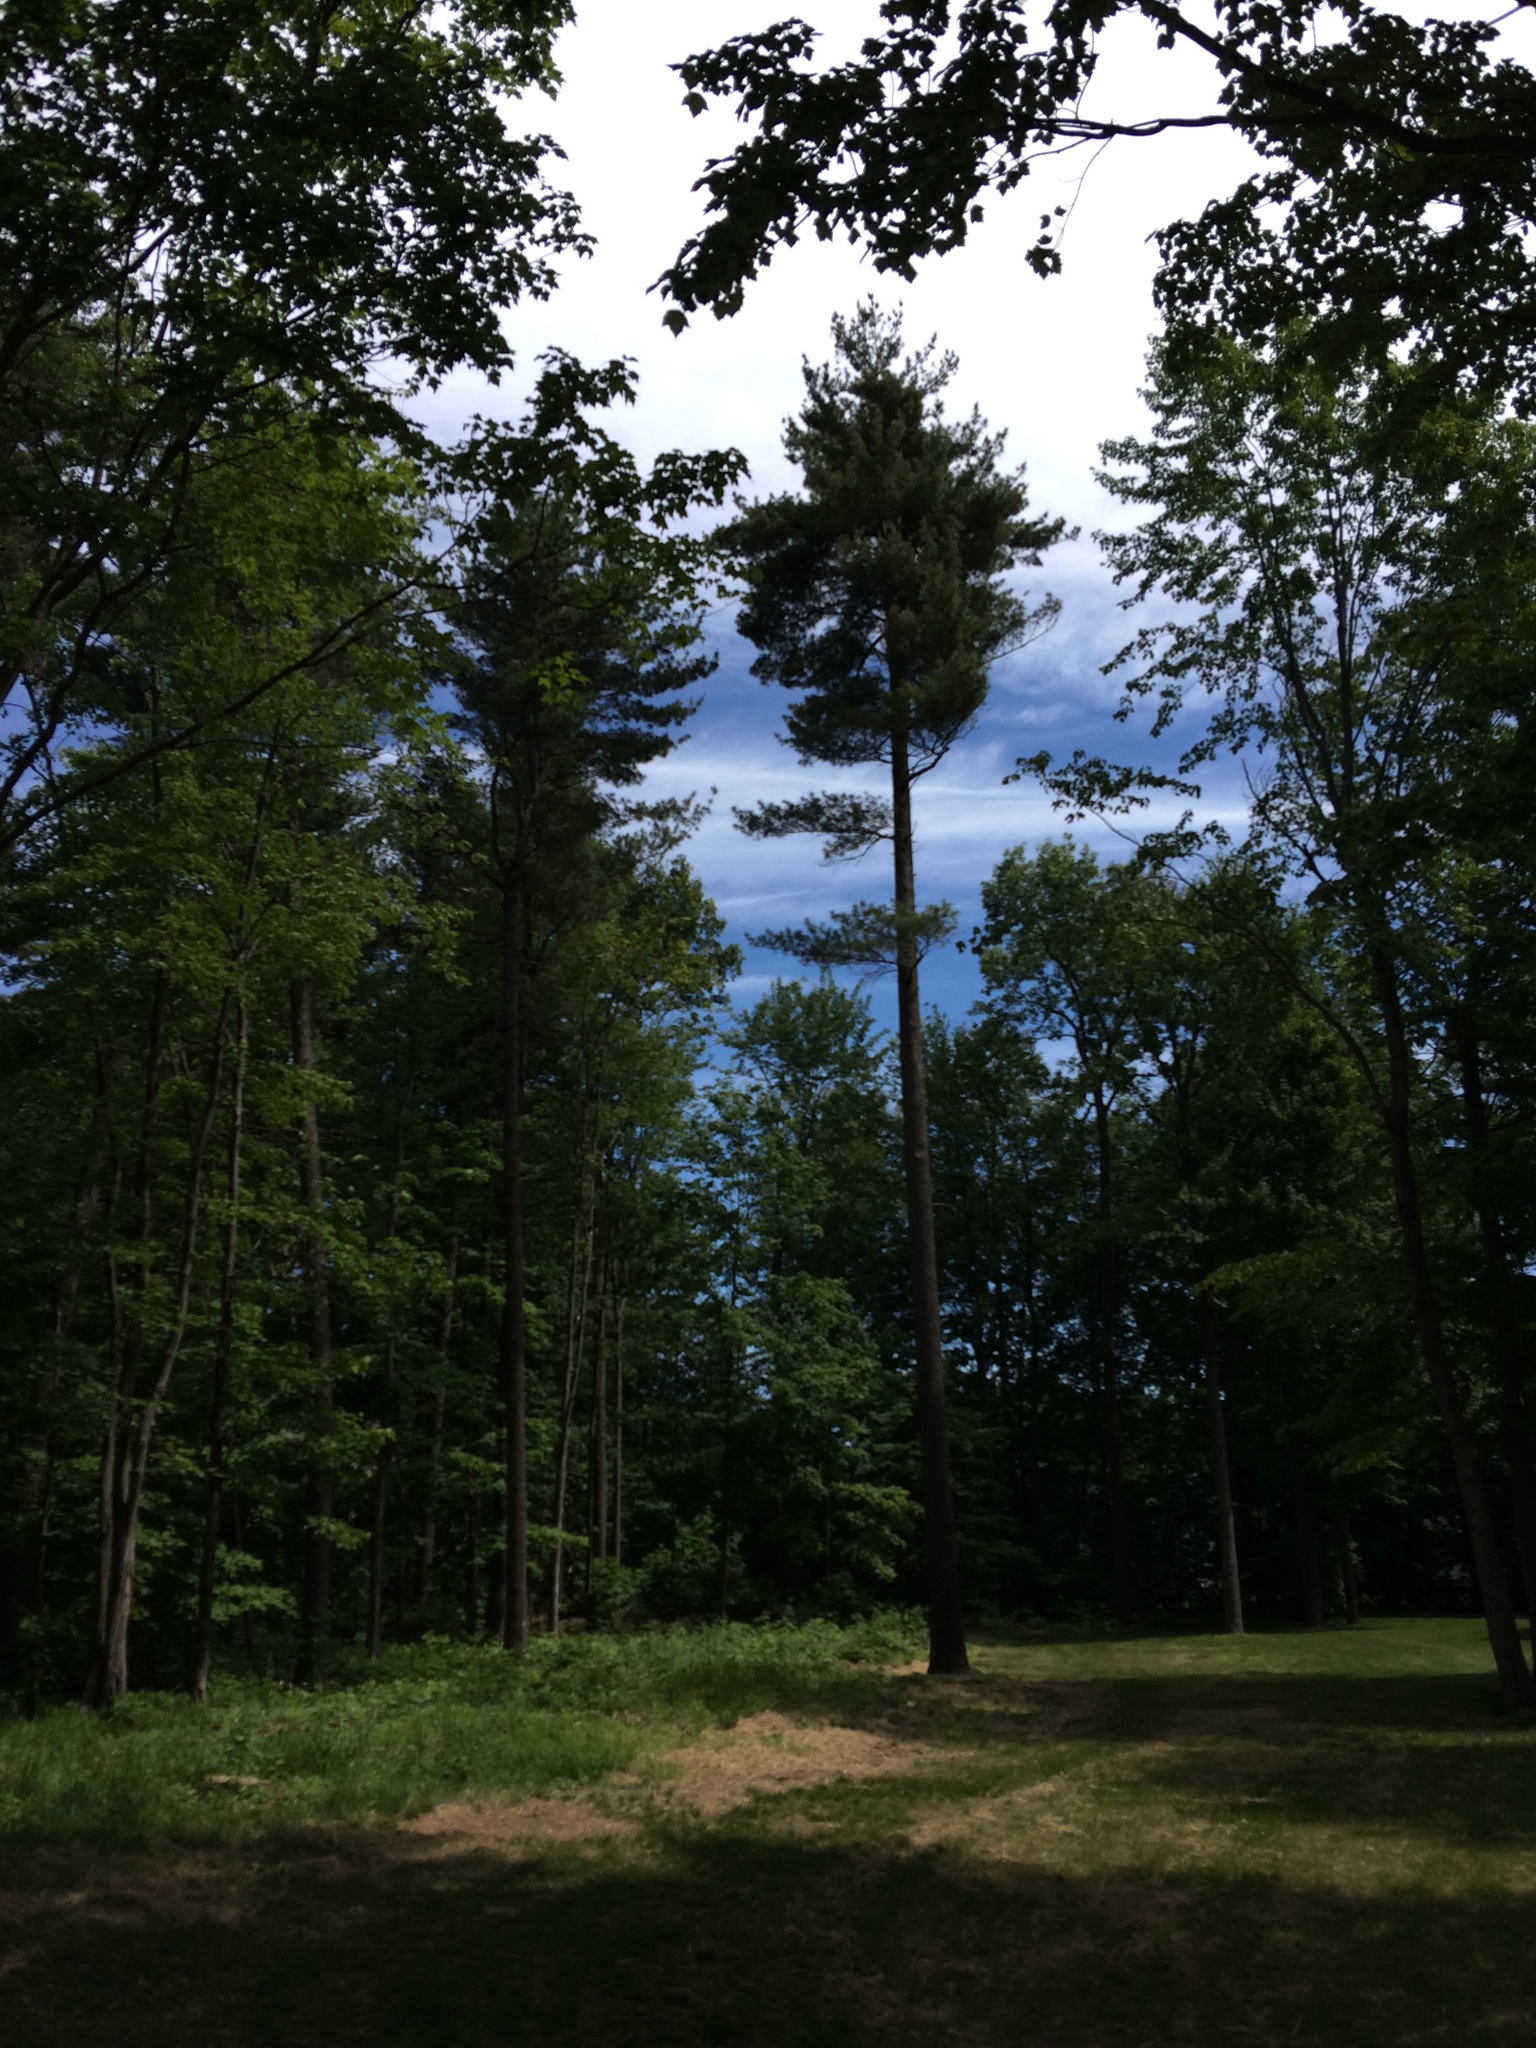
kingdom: Plantae
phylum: Tracheophyta
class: Pinopsida
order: Pinales
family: Pinaceae
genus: Pinus
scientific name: Pinus strobus
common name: Weymouth pine
